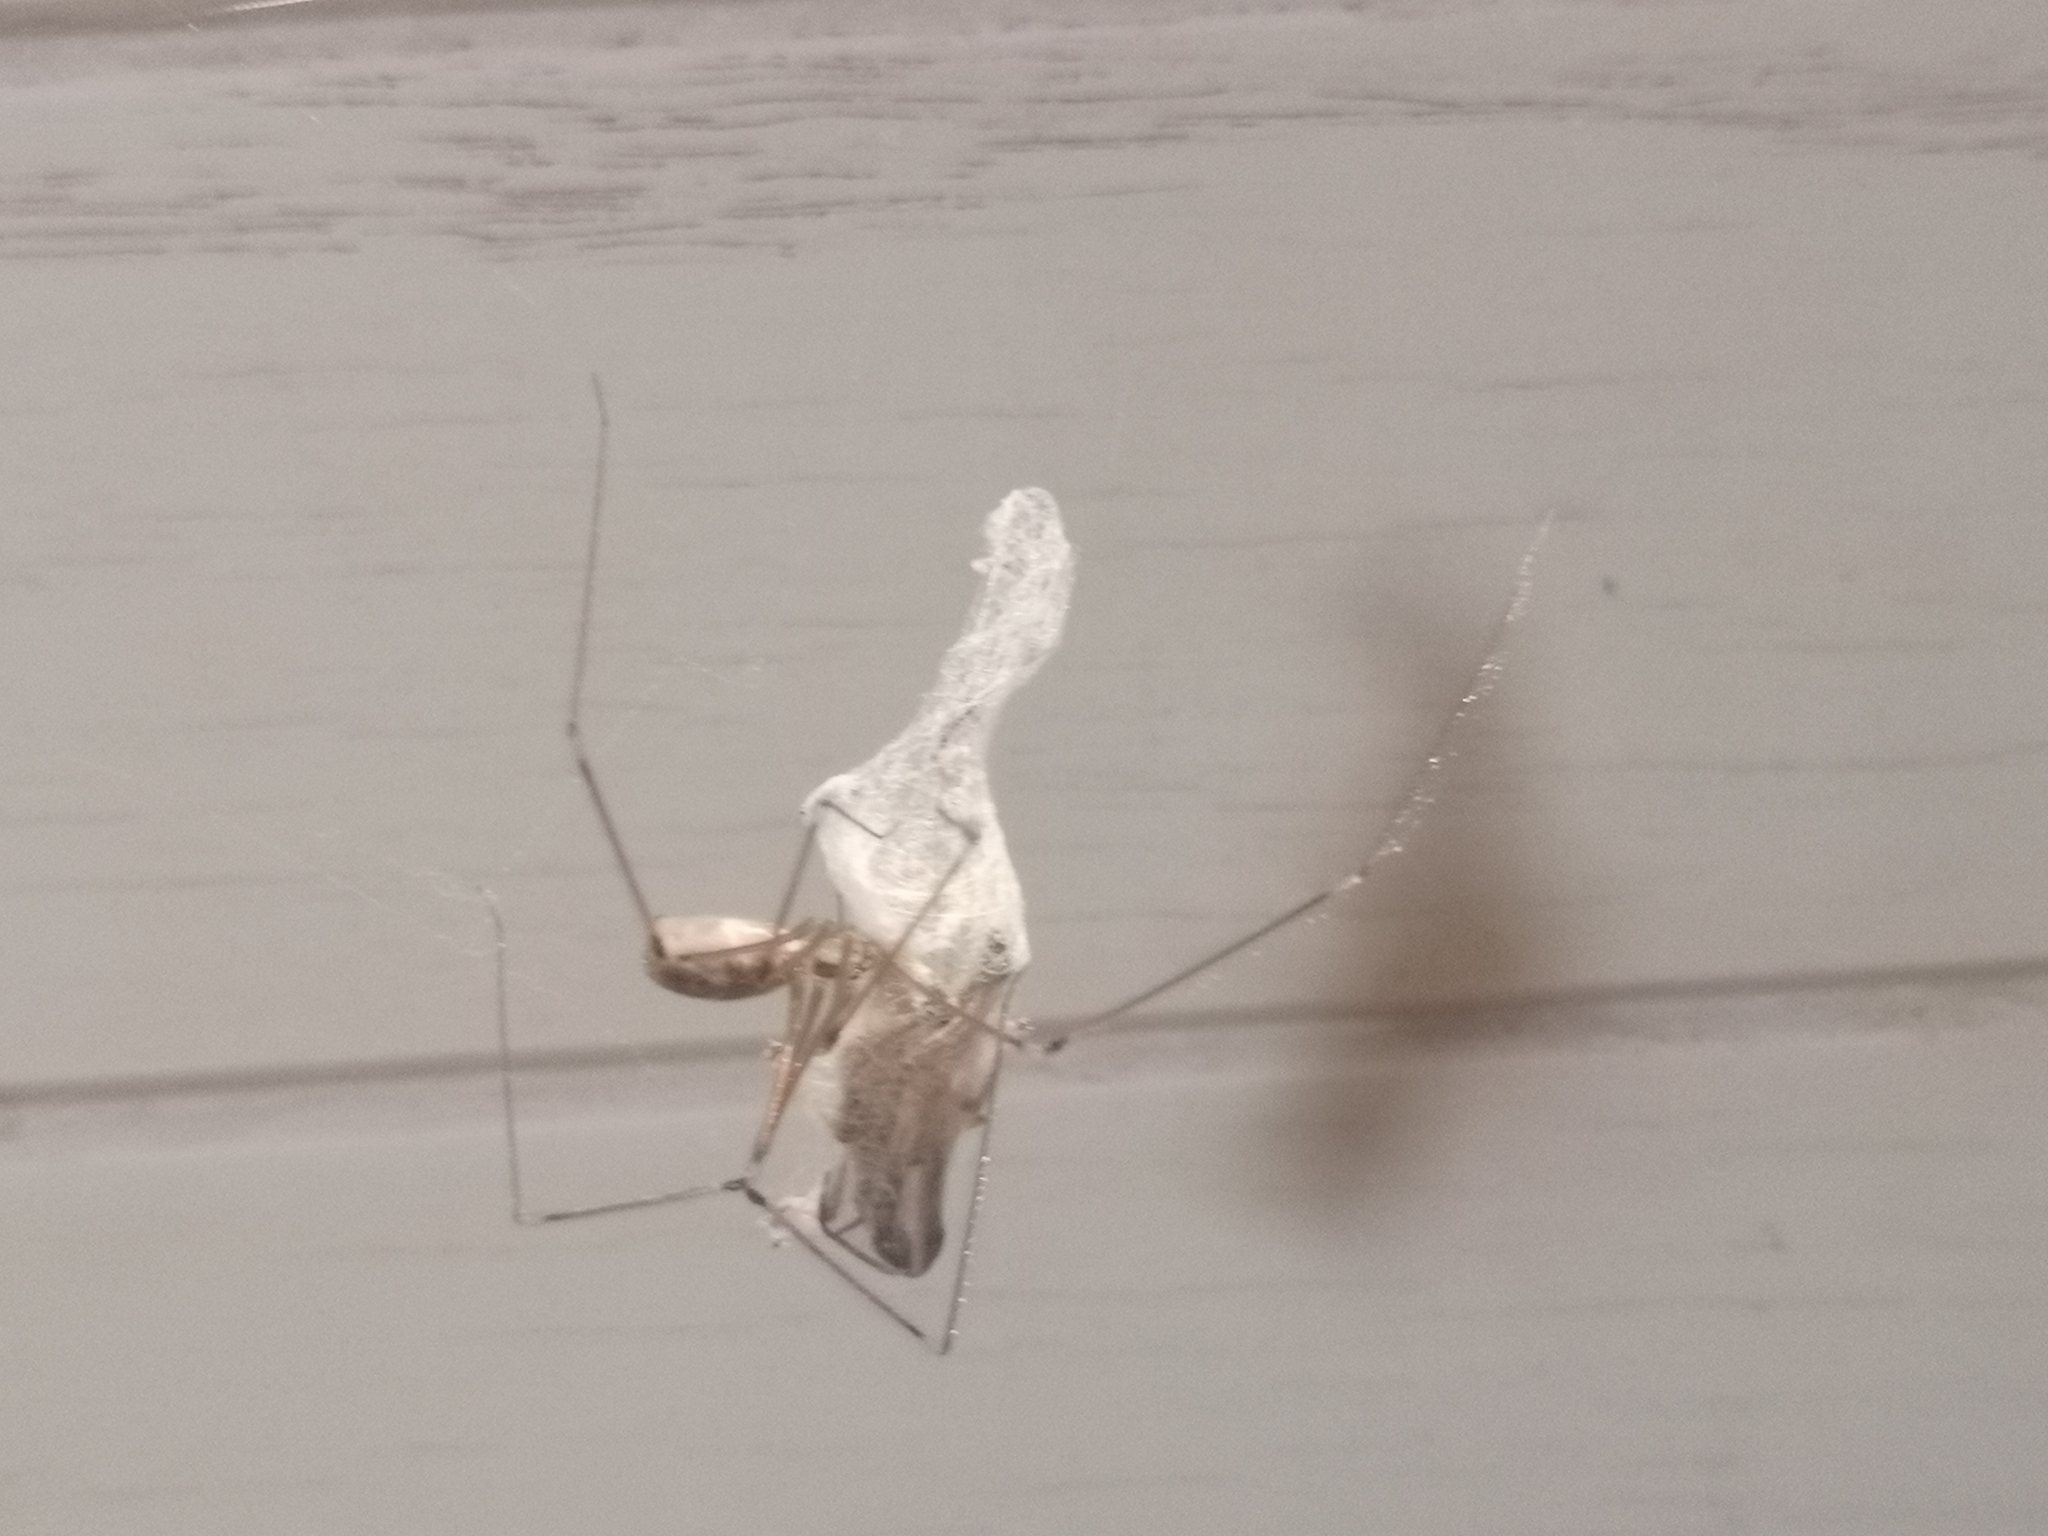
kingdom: Animalia
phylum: Arthropoda
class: Arachnida
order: Araneae
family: Pholcidae
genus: Pholcus
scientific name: Pholcus phalangioides
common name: Longbodied cellar spider
